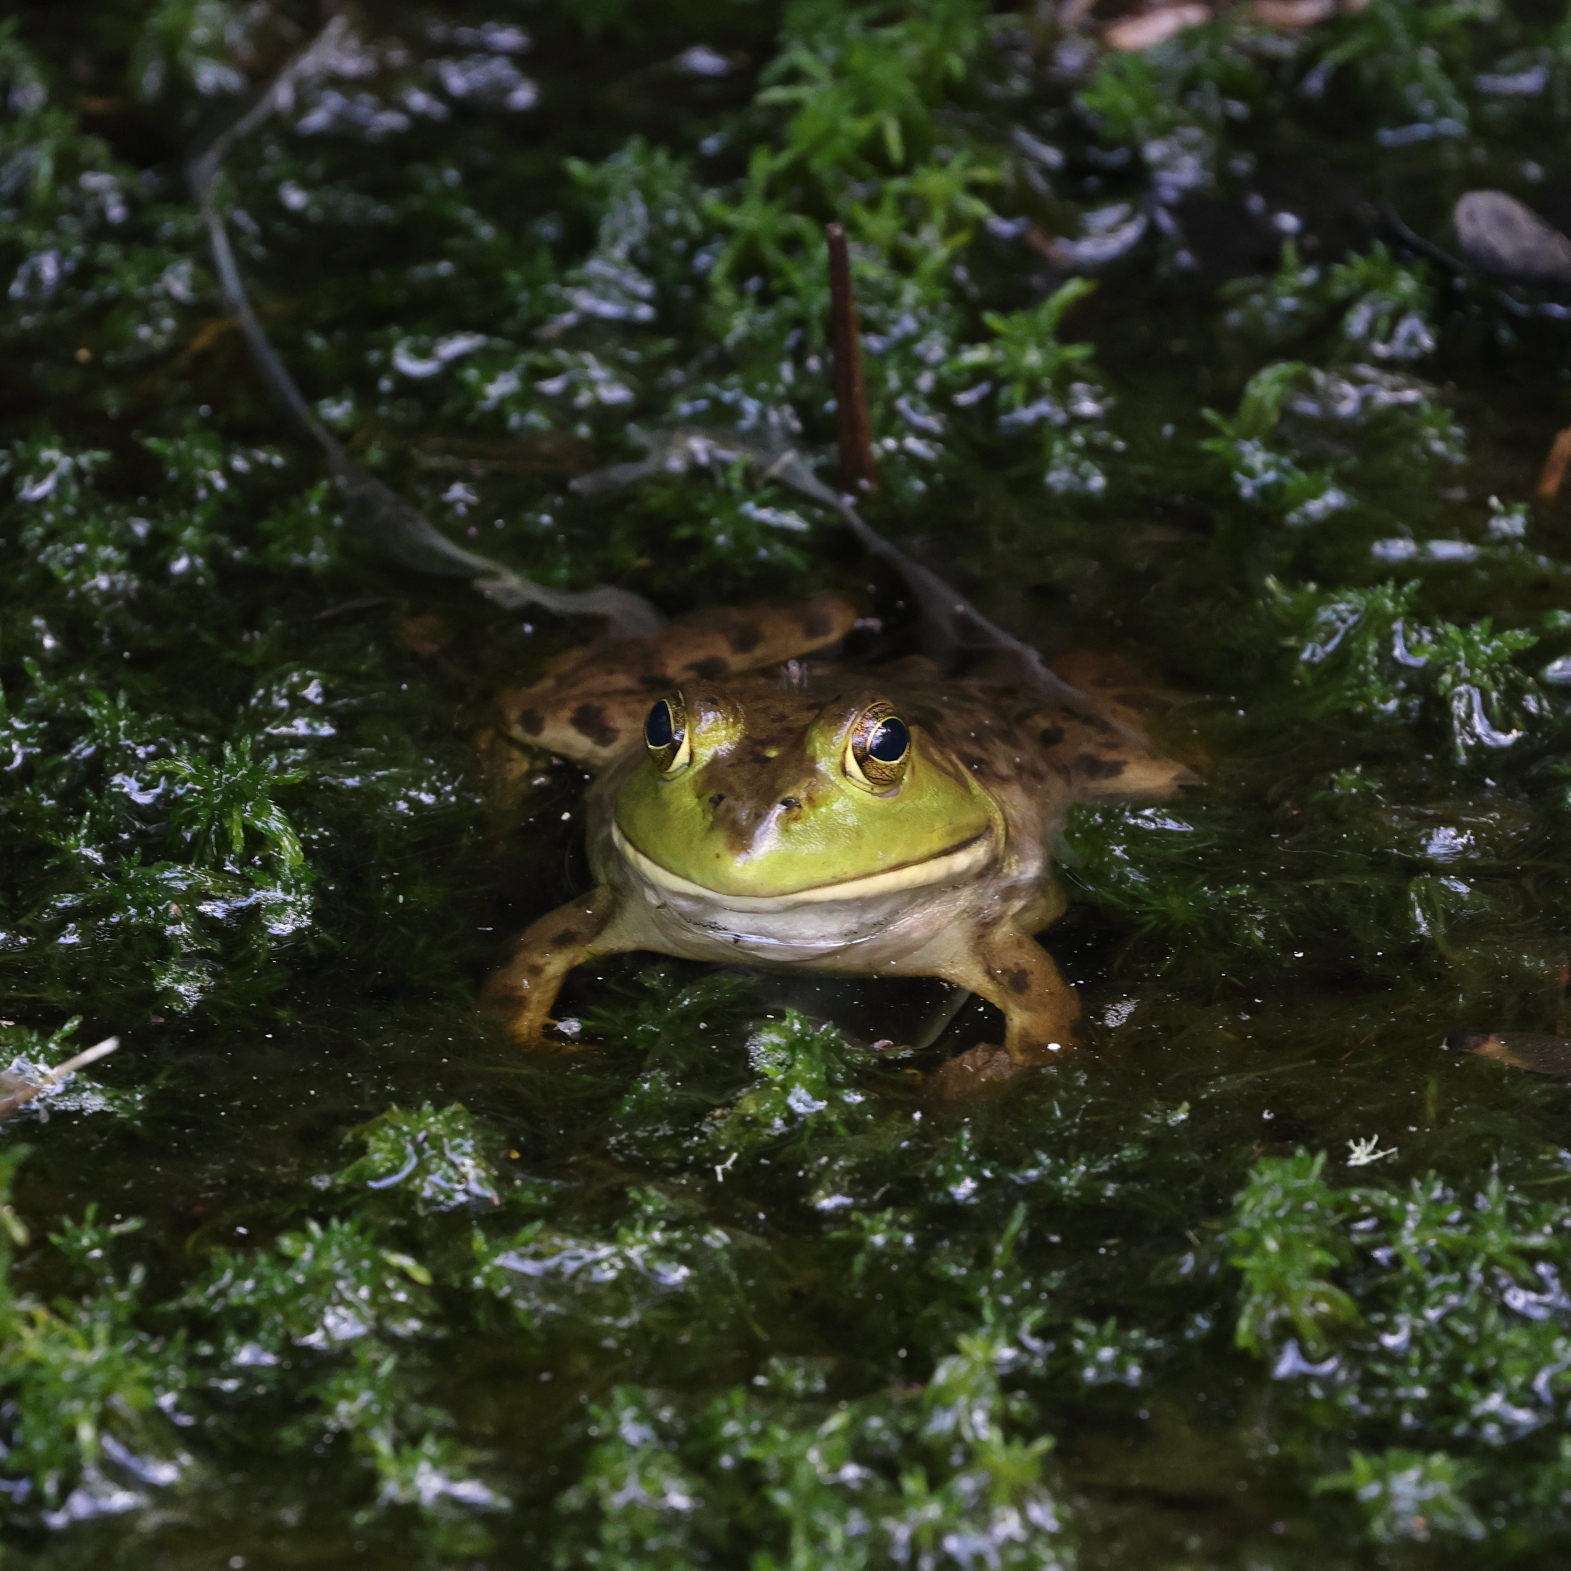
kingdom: Animalia
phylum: Chordata
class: Amphibia
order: Anura
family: Ranidae
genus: Lithobates
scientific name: Lithobates catesbeianus
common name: American bullfrog
